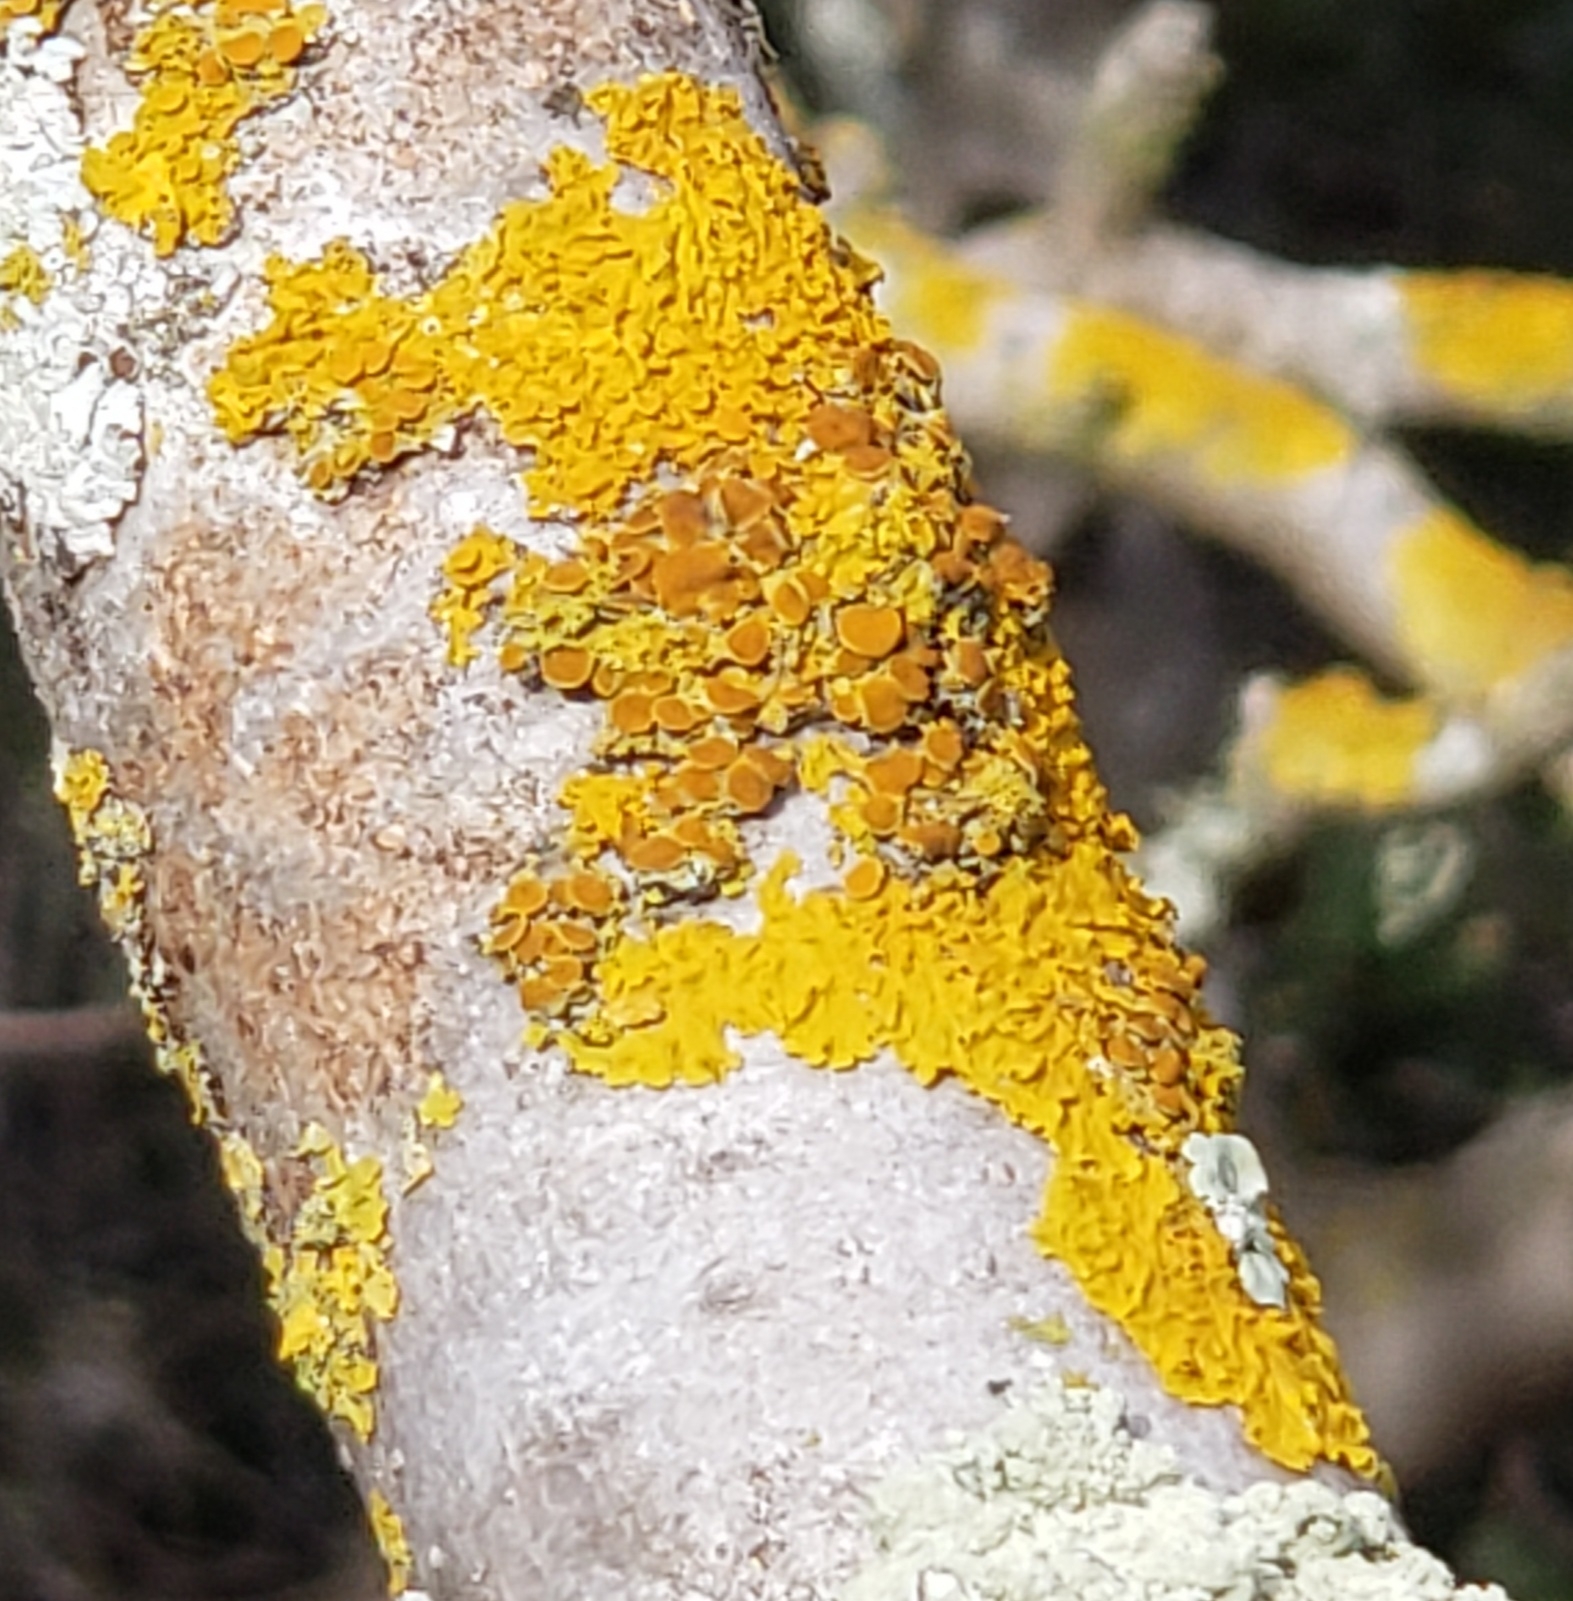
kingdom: Fungi
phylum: Ascomycota
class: Lecanoromycetes
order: Teloschistales
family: Teloschistaceae
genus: Xanthoria
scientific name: Xanthoria parietina
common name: Common orange lichen
